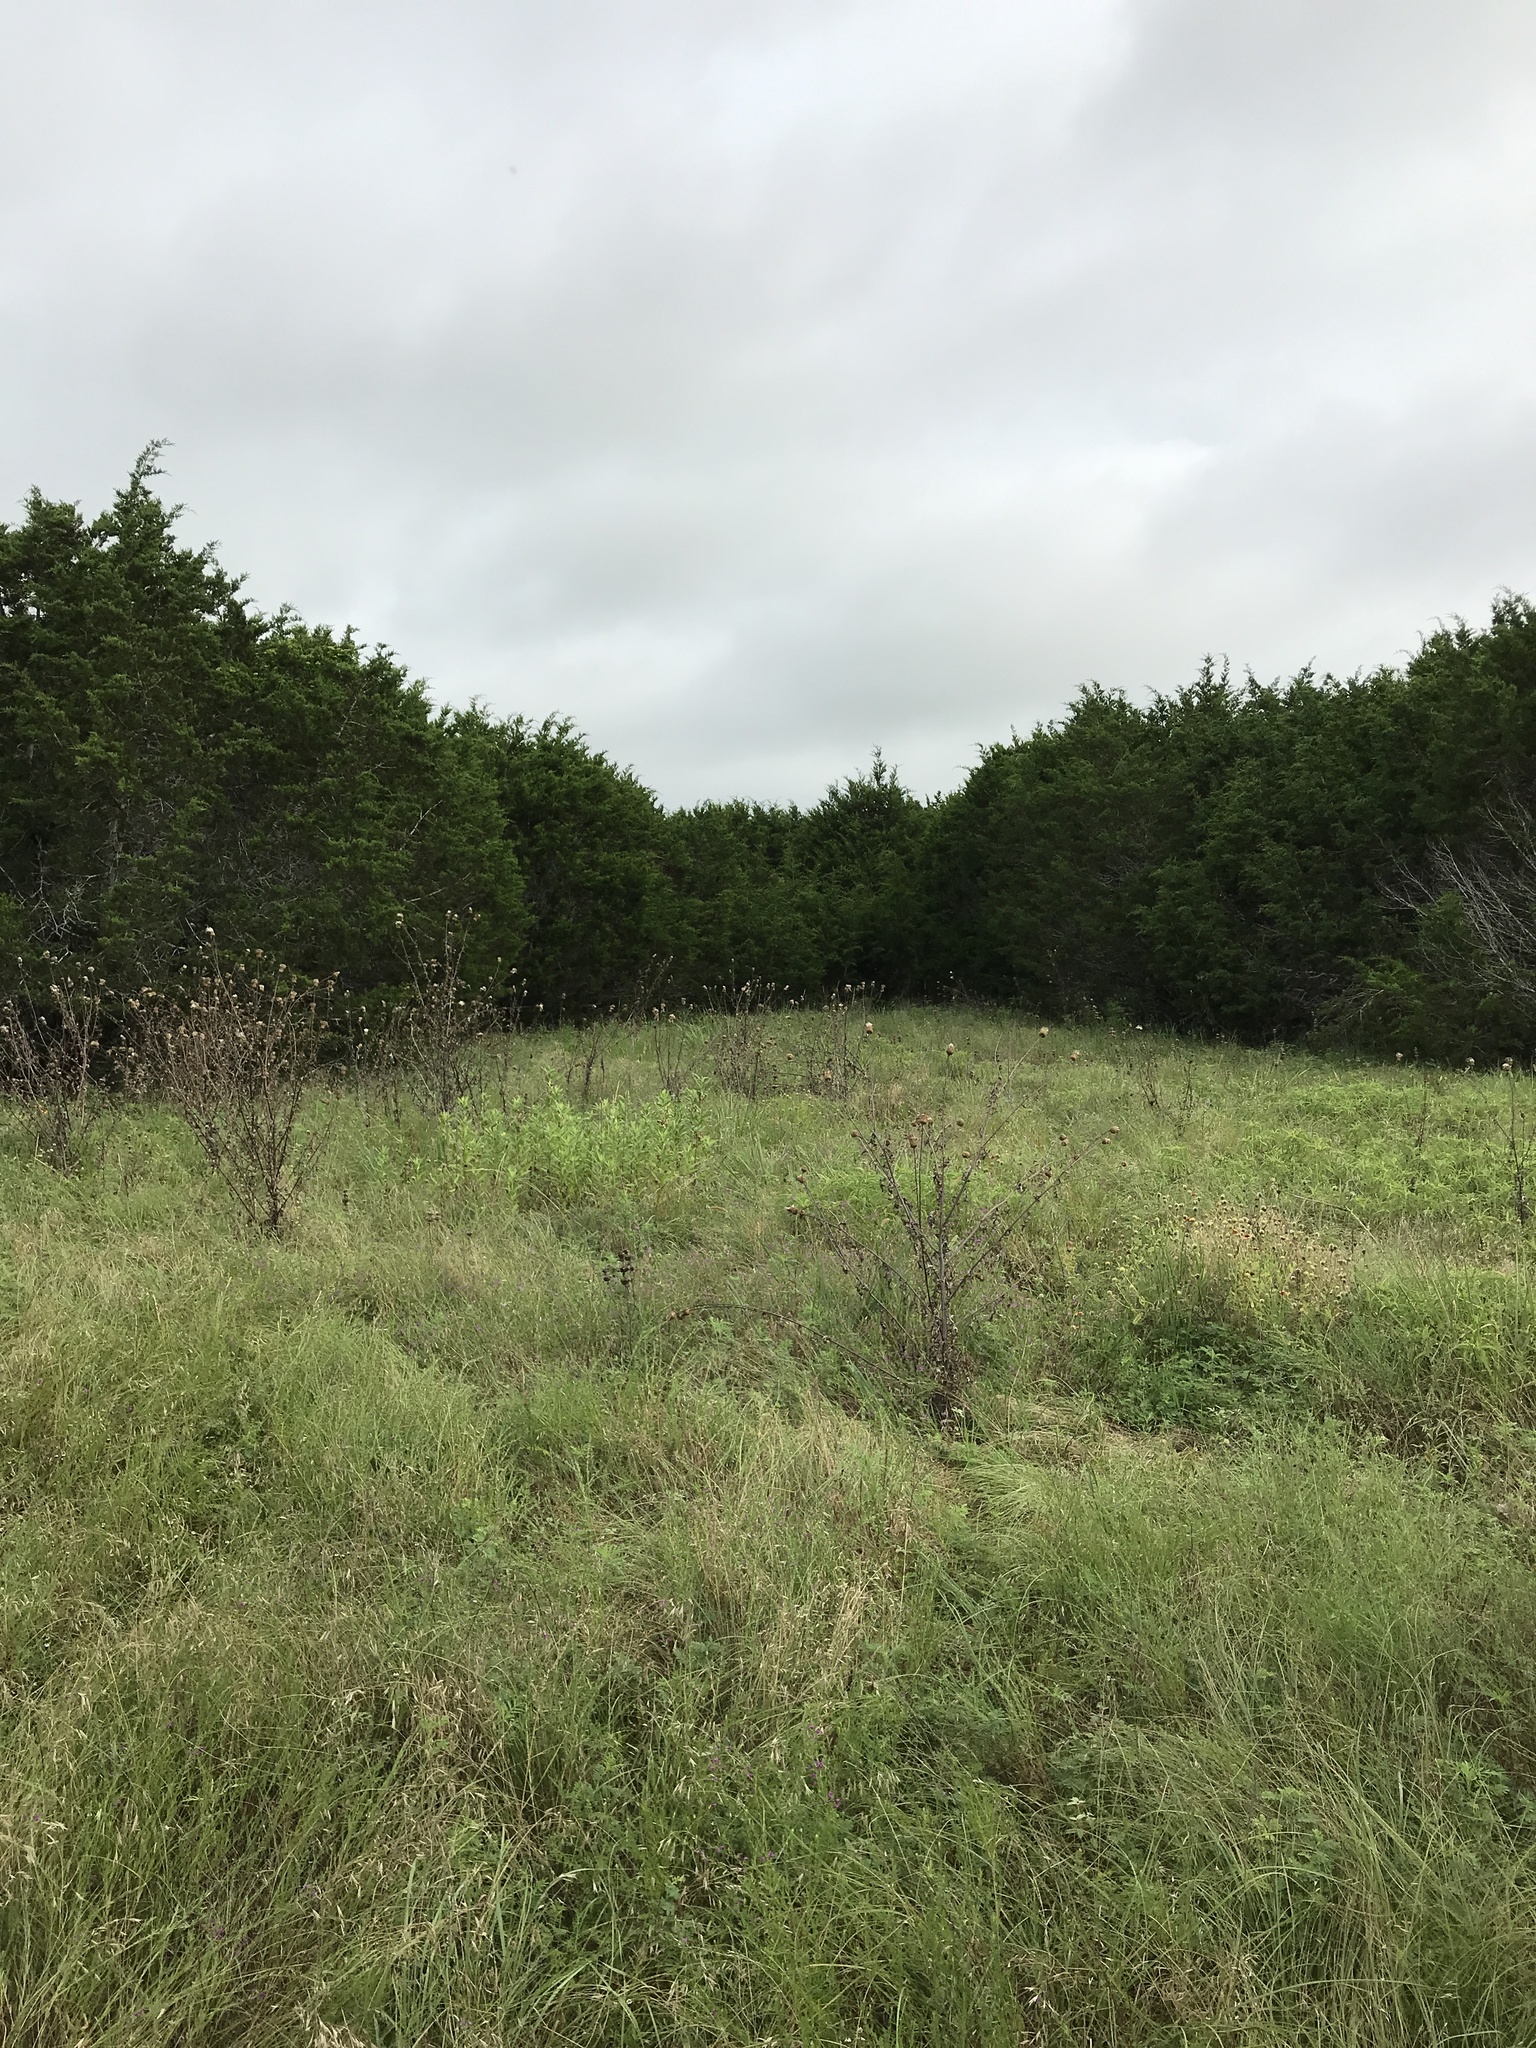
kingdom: Plantae
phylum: Tracheophyta
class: Pinopsida
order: Pinales
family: Cupressaceae
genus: Juniperus
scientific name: Juniperus ashei
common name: Mexican juniper
